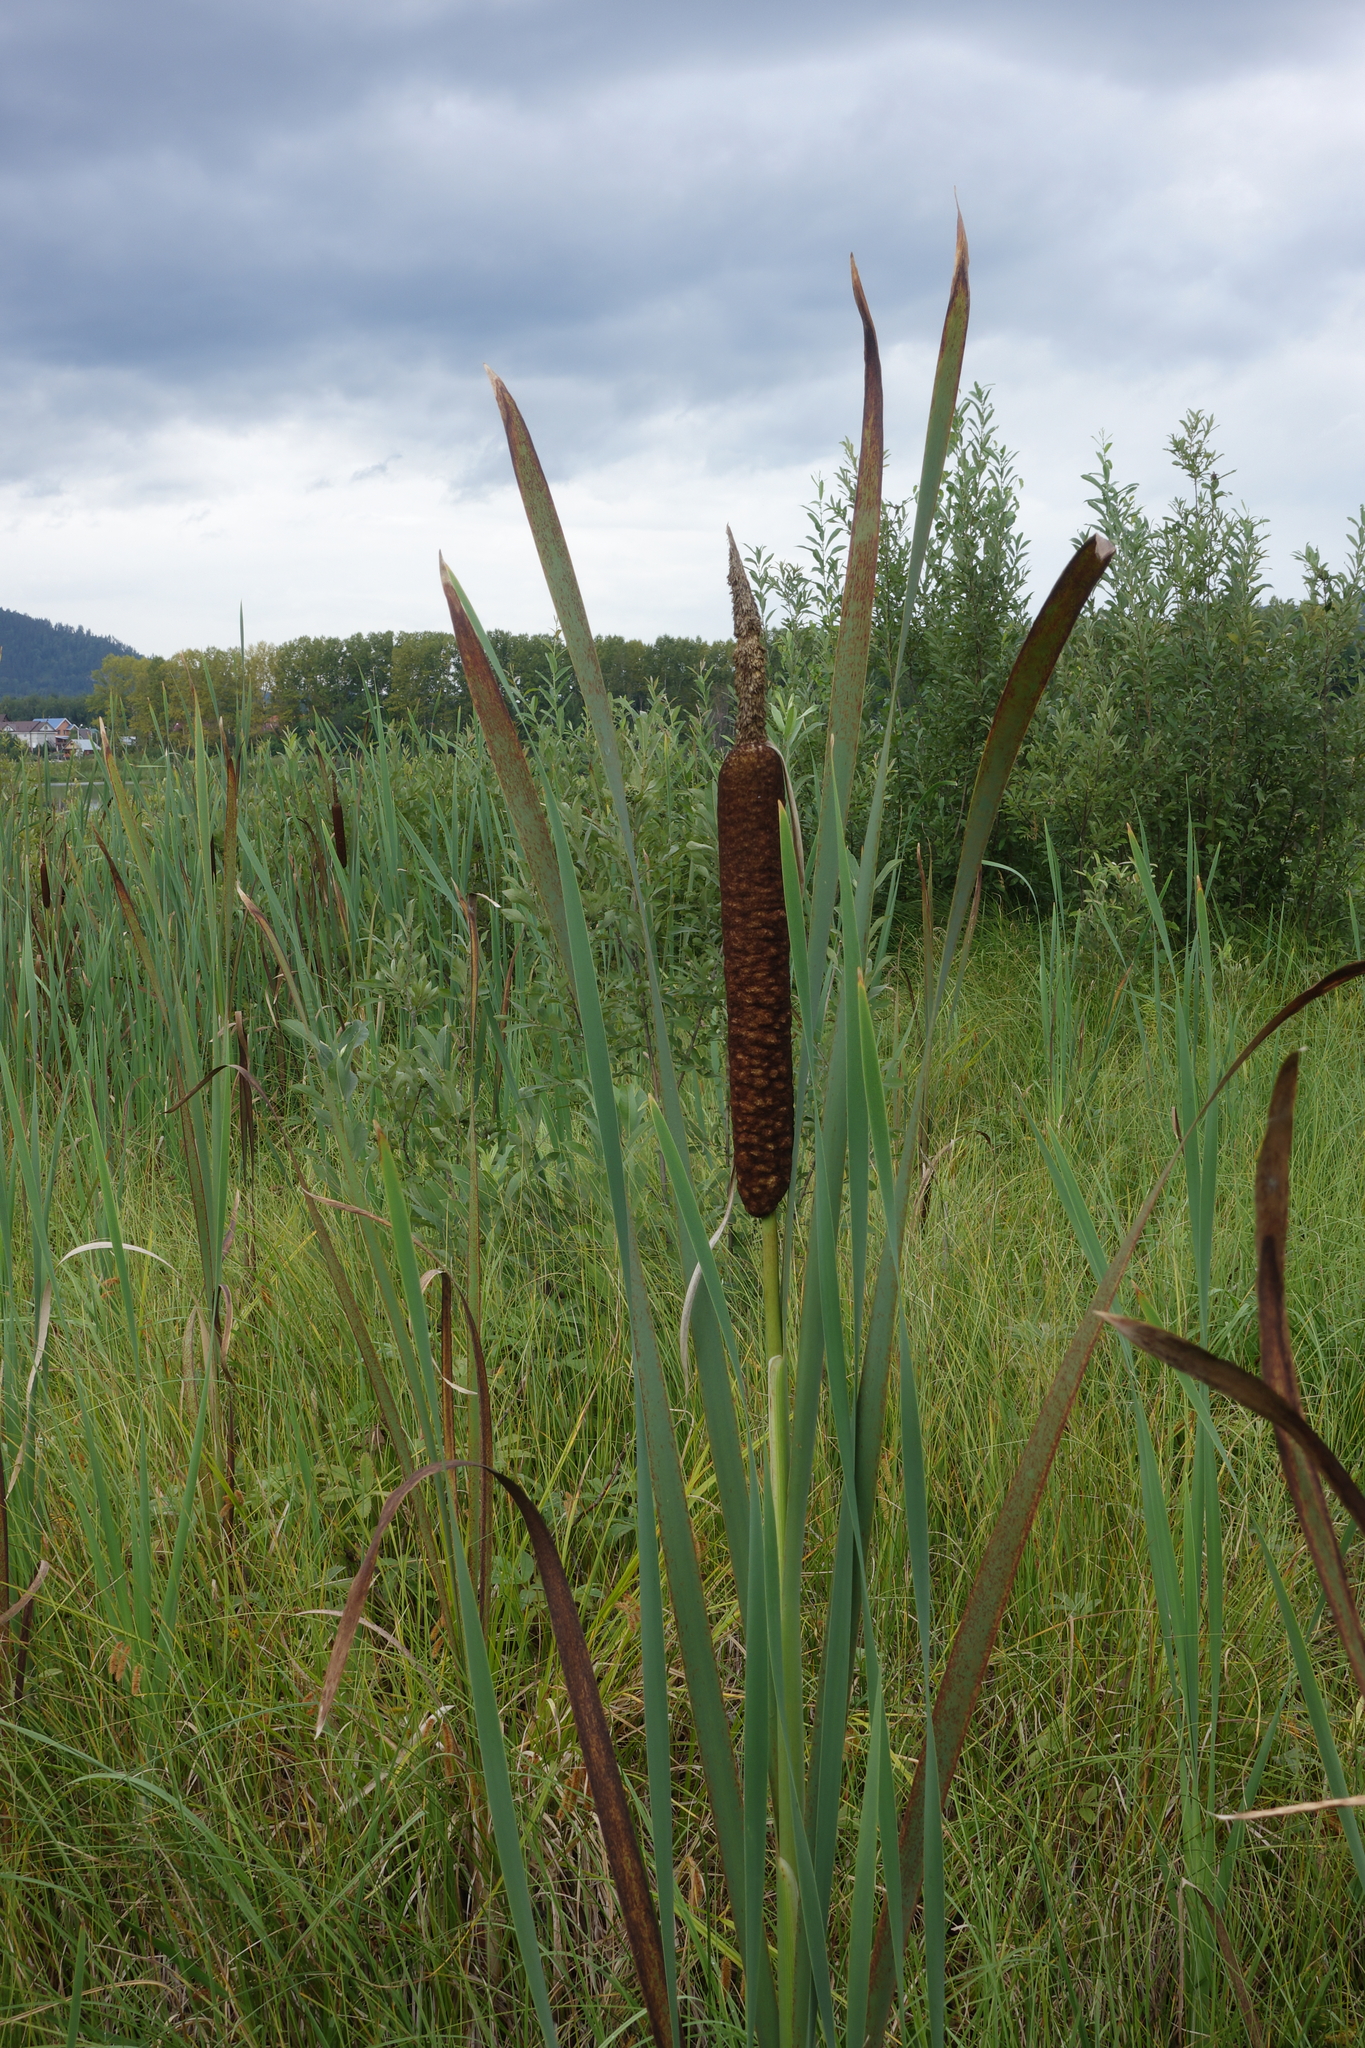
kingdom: Plantae
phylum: Tracheophyta
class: Liliopsida
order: Poales
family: Typhaceae
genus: Typha
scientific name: Typha latifolia
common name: Broadleaf cattail
